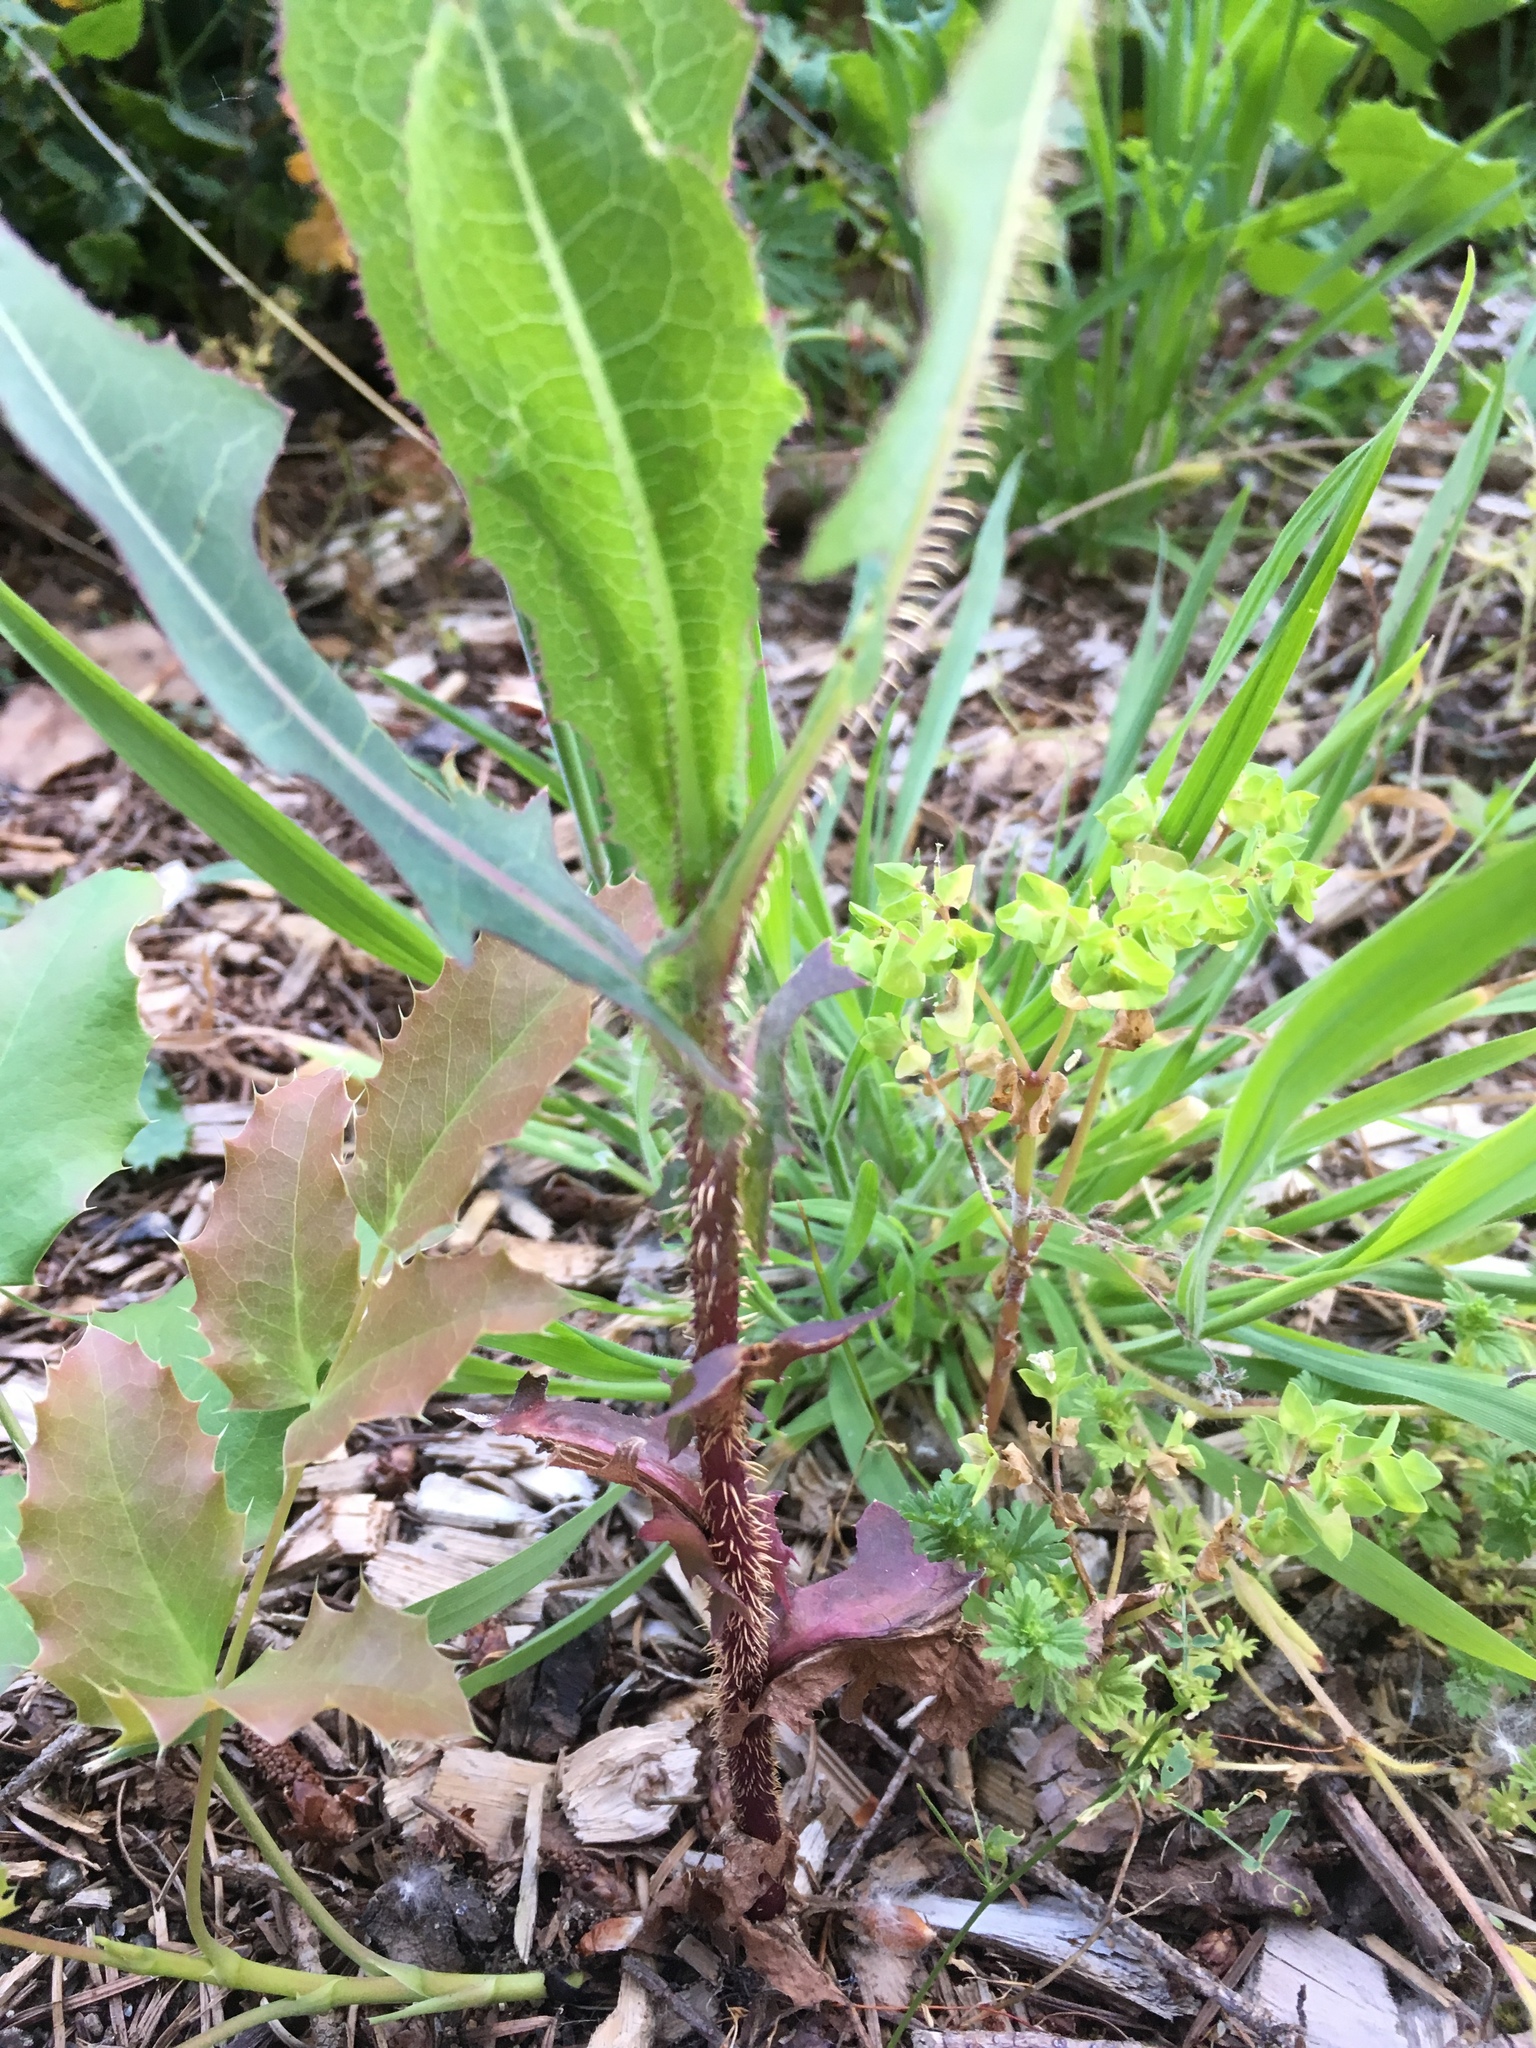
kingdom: Plantae
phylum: Tracheophyta
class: Magnoliopsida
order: Asterales
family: Asteraceae
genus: Lactuca
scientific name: Lactuca serriola
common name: Prickly lettuce
